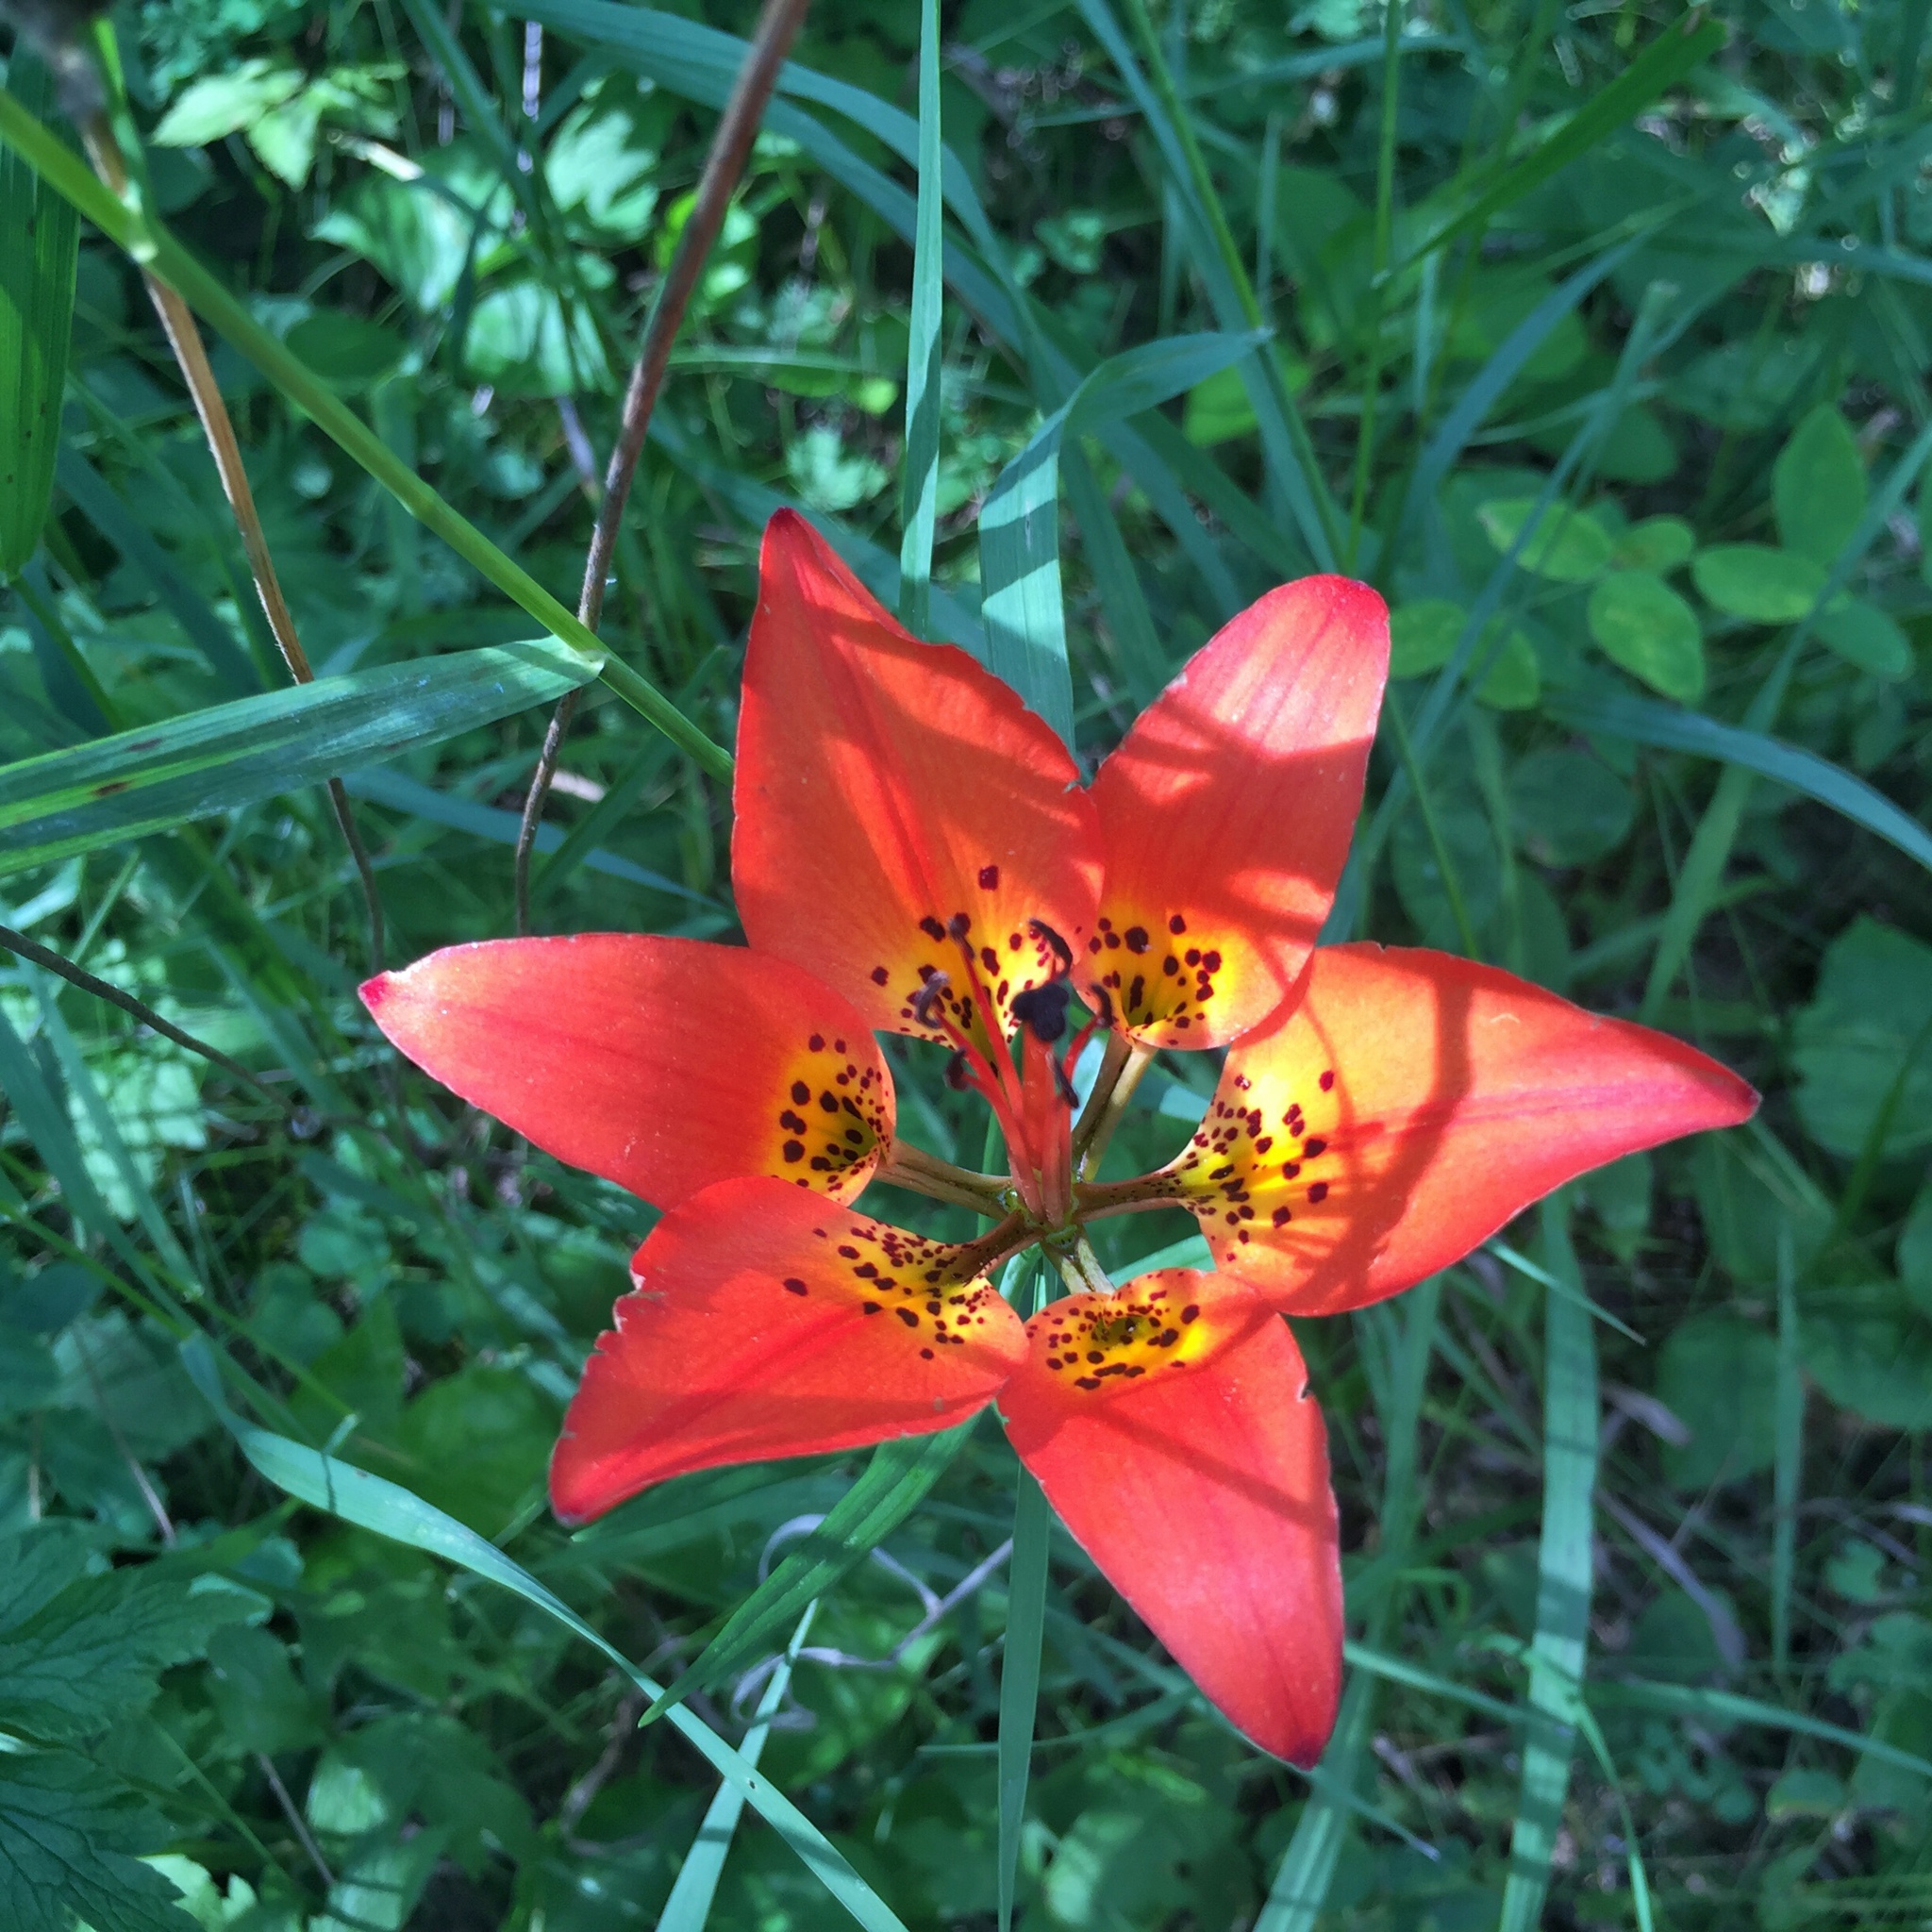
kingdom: Plantae
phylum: Tracheophyta
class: Liliopsida
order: Liliales
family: Liliaceae
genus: Lilium
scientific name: Lilium philadelphicum
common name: Red lily
